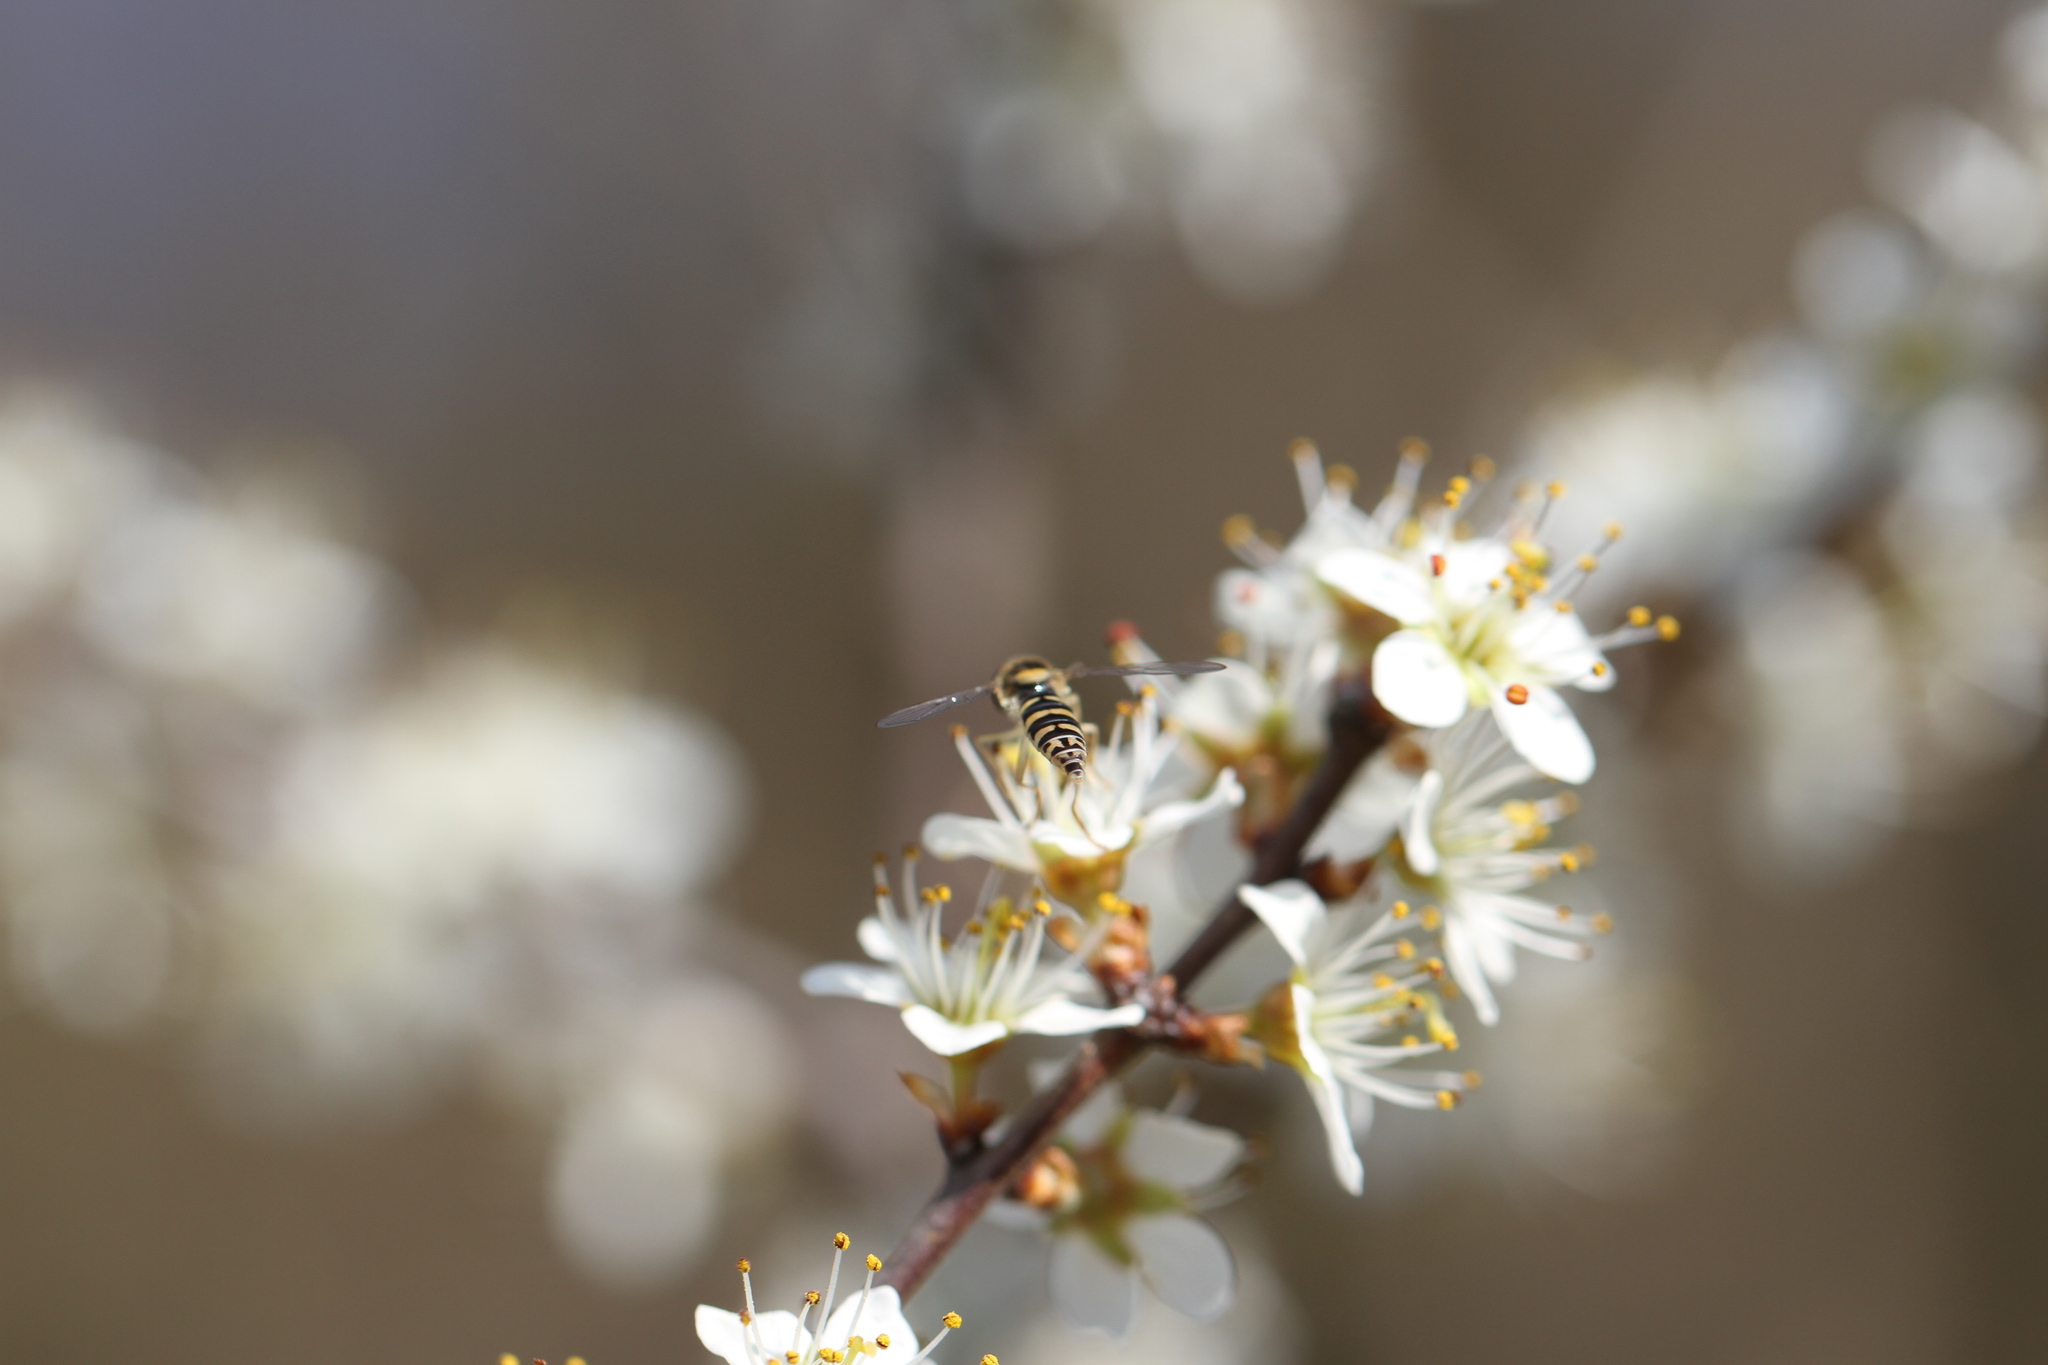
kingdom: Animalia
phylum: Arthropoda
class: Insecta
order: Diptera
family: Syrphidae
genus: Sphaerophoria
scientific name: Sphaerophoria
